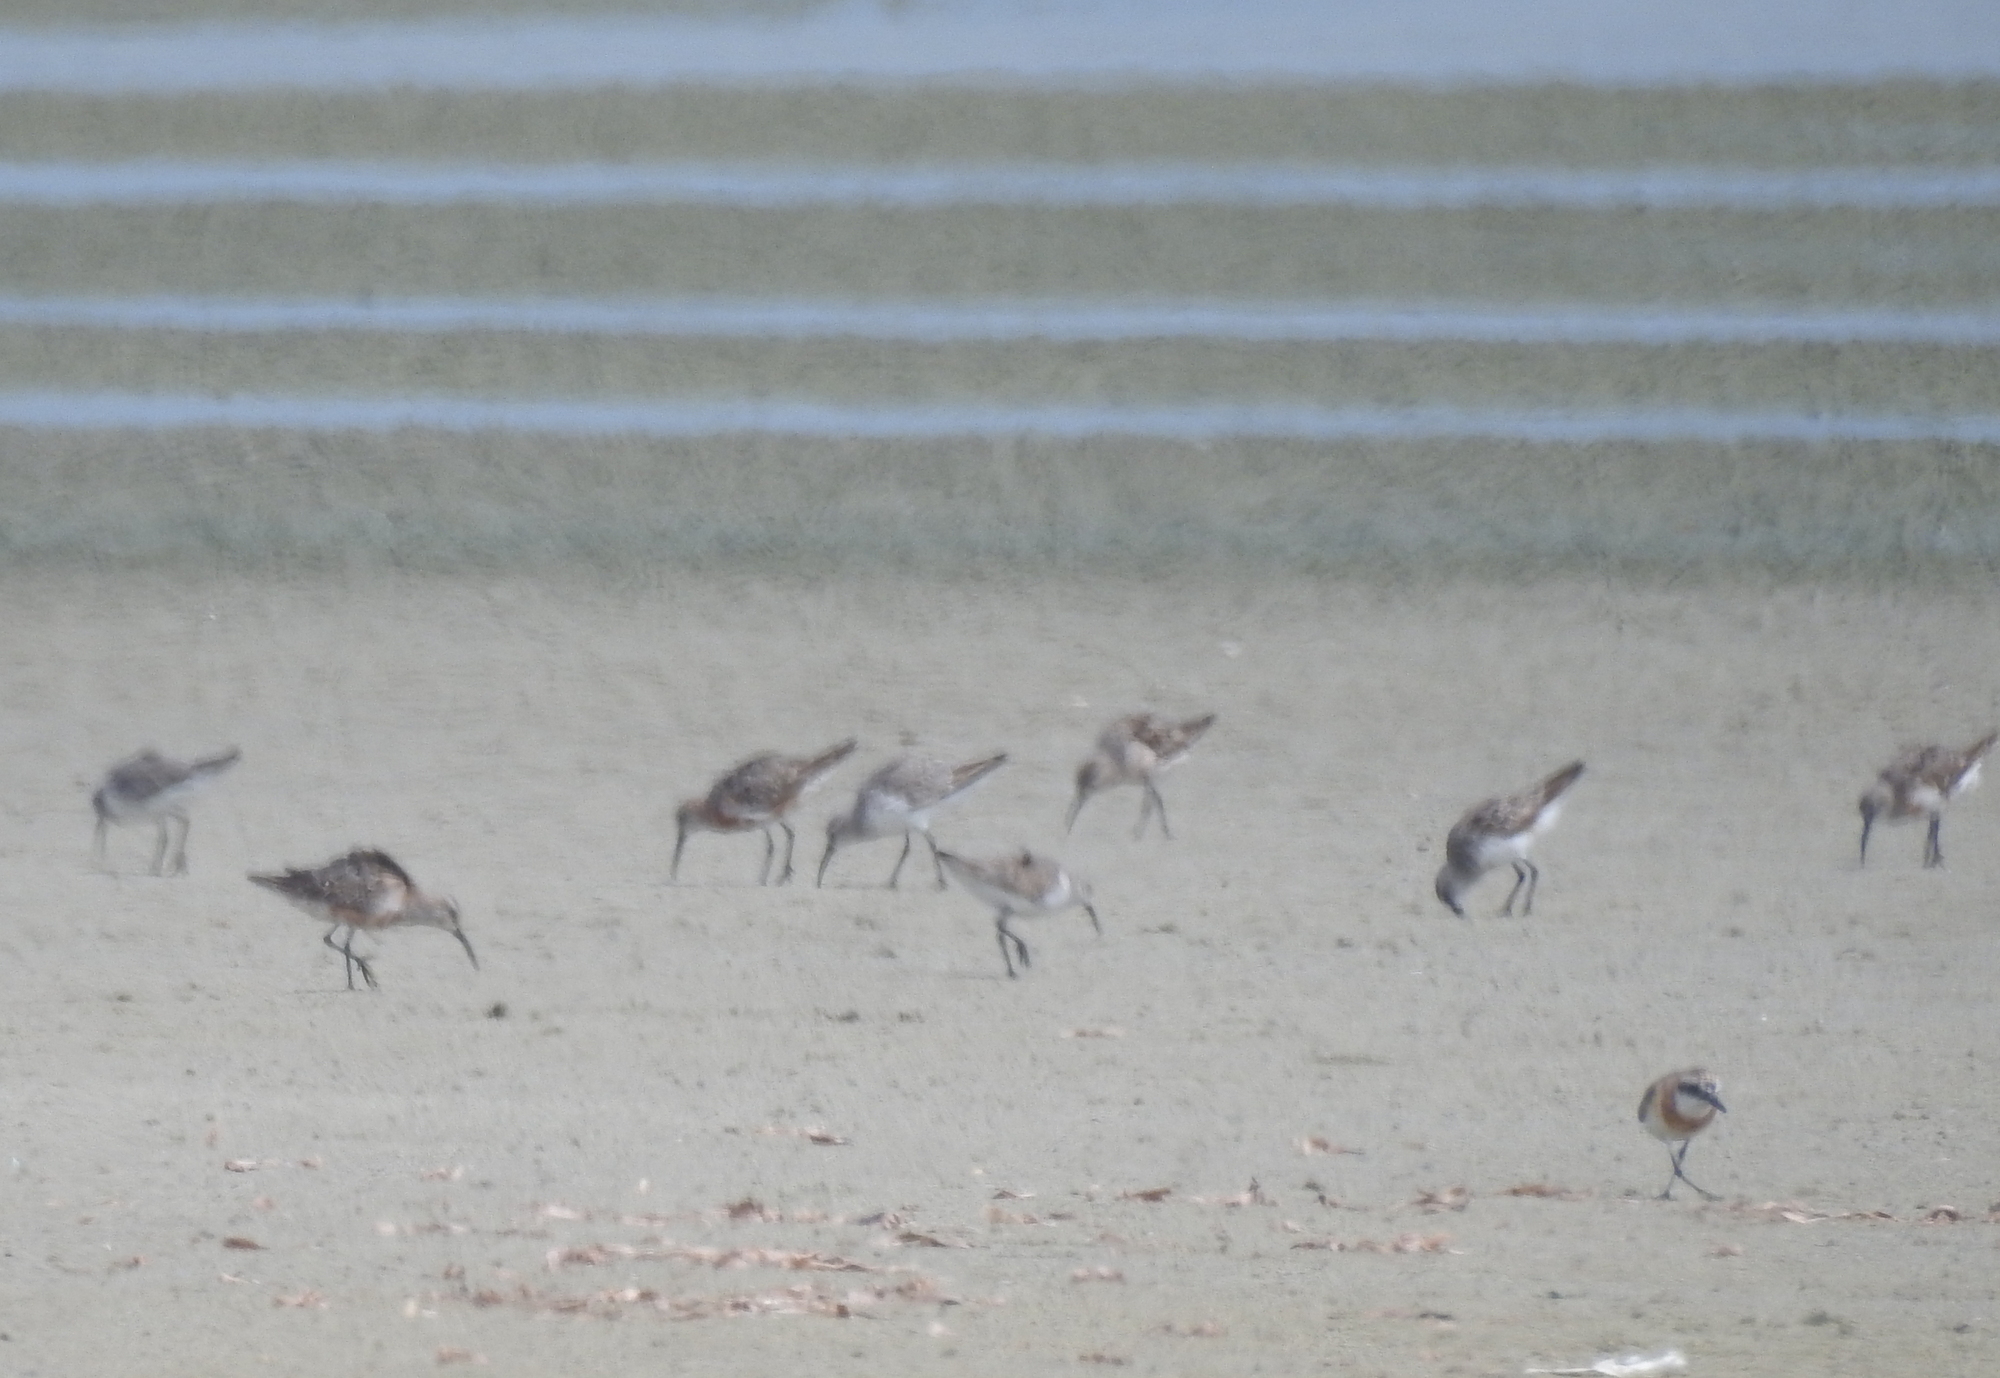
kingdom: Animalia
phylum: Chordata
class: Aves
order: Charadriiformes
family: Scolopacidae
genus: Calidris
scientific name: Calidris ferruginea
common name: Curlew sandpiper
